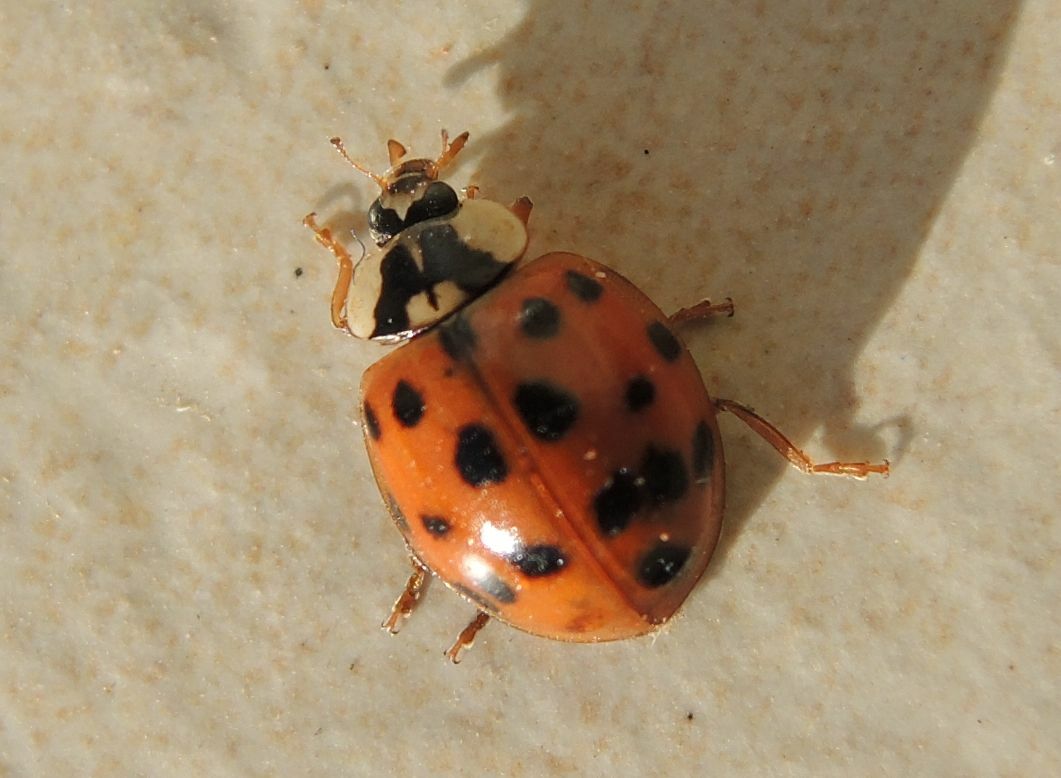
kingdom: Animalia
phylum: Arthropoda
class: Insecta
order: Coleoptera
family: Coccinellidae
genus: Harmonia
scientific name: Harmonia axyridis
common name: Harlequin ladybird
